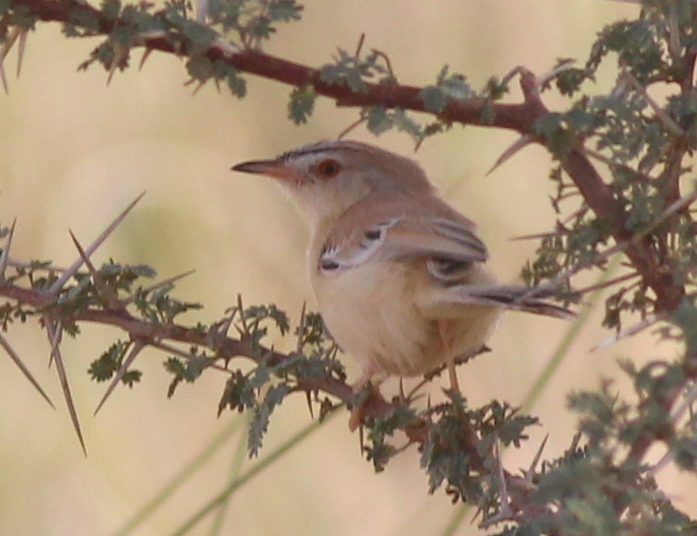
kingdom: Animalia
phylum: Chordata
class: Aves
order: Passeriformes
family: Cisticolidae
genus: Spiloptila
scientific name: Spiloptila clamans
